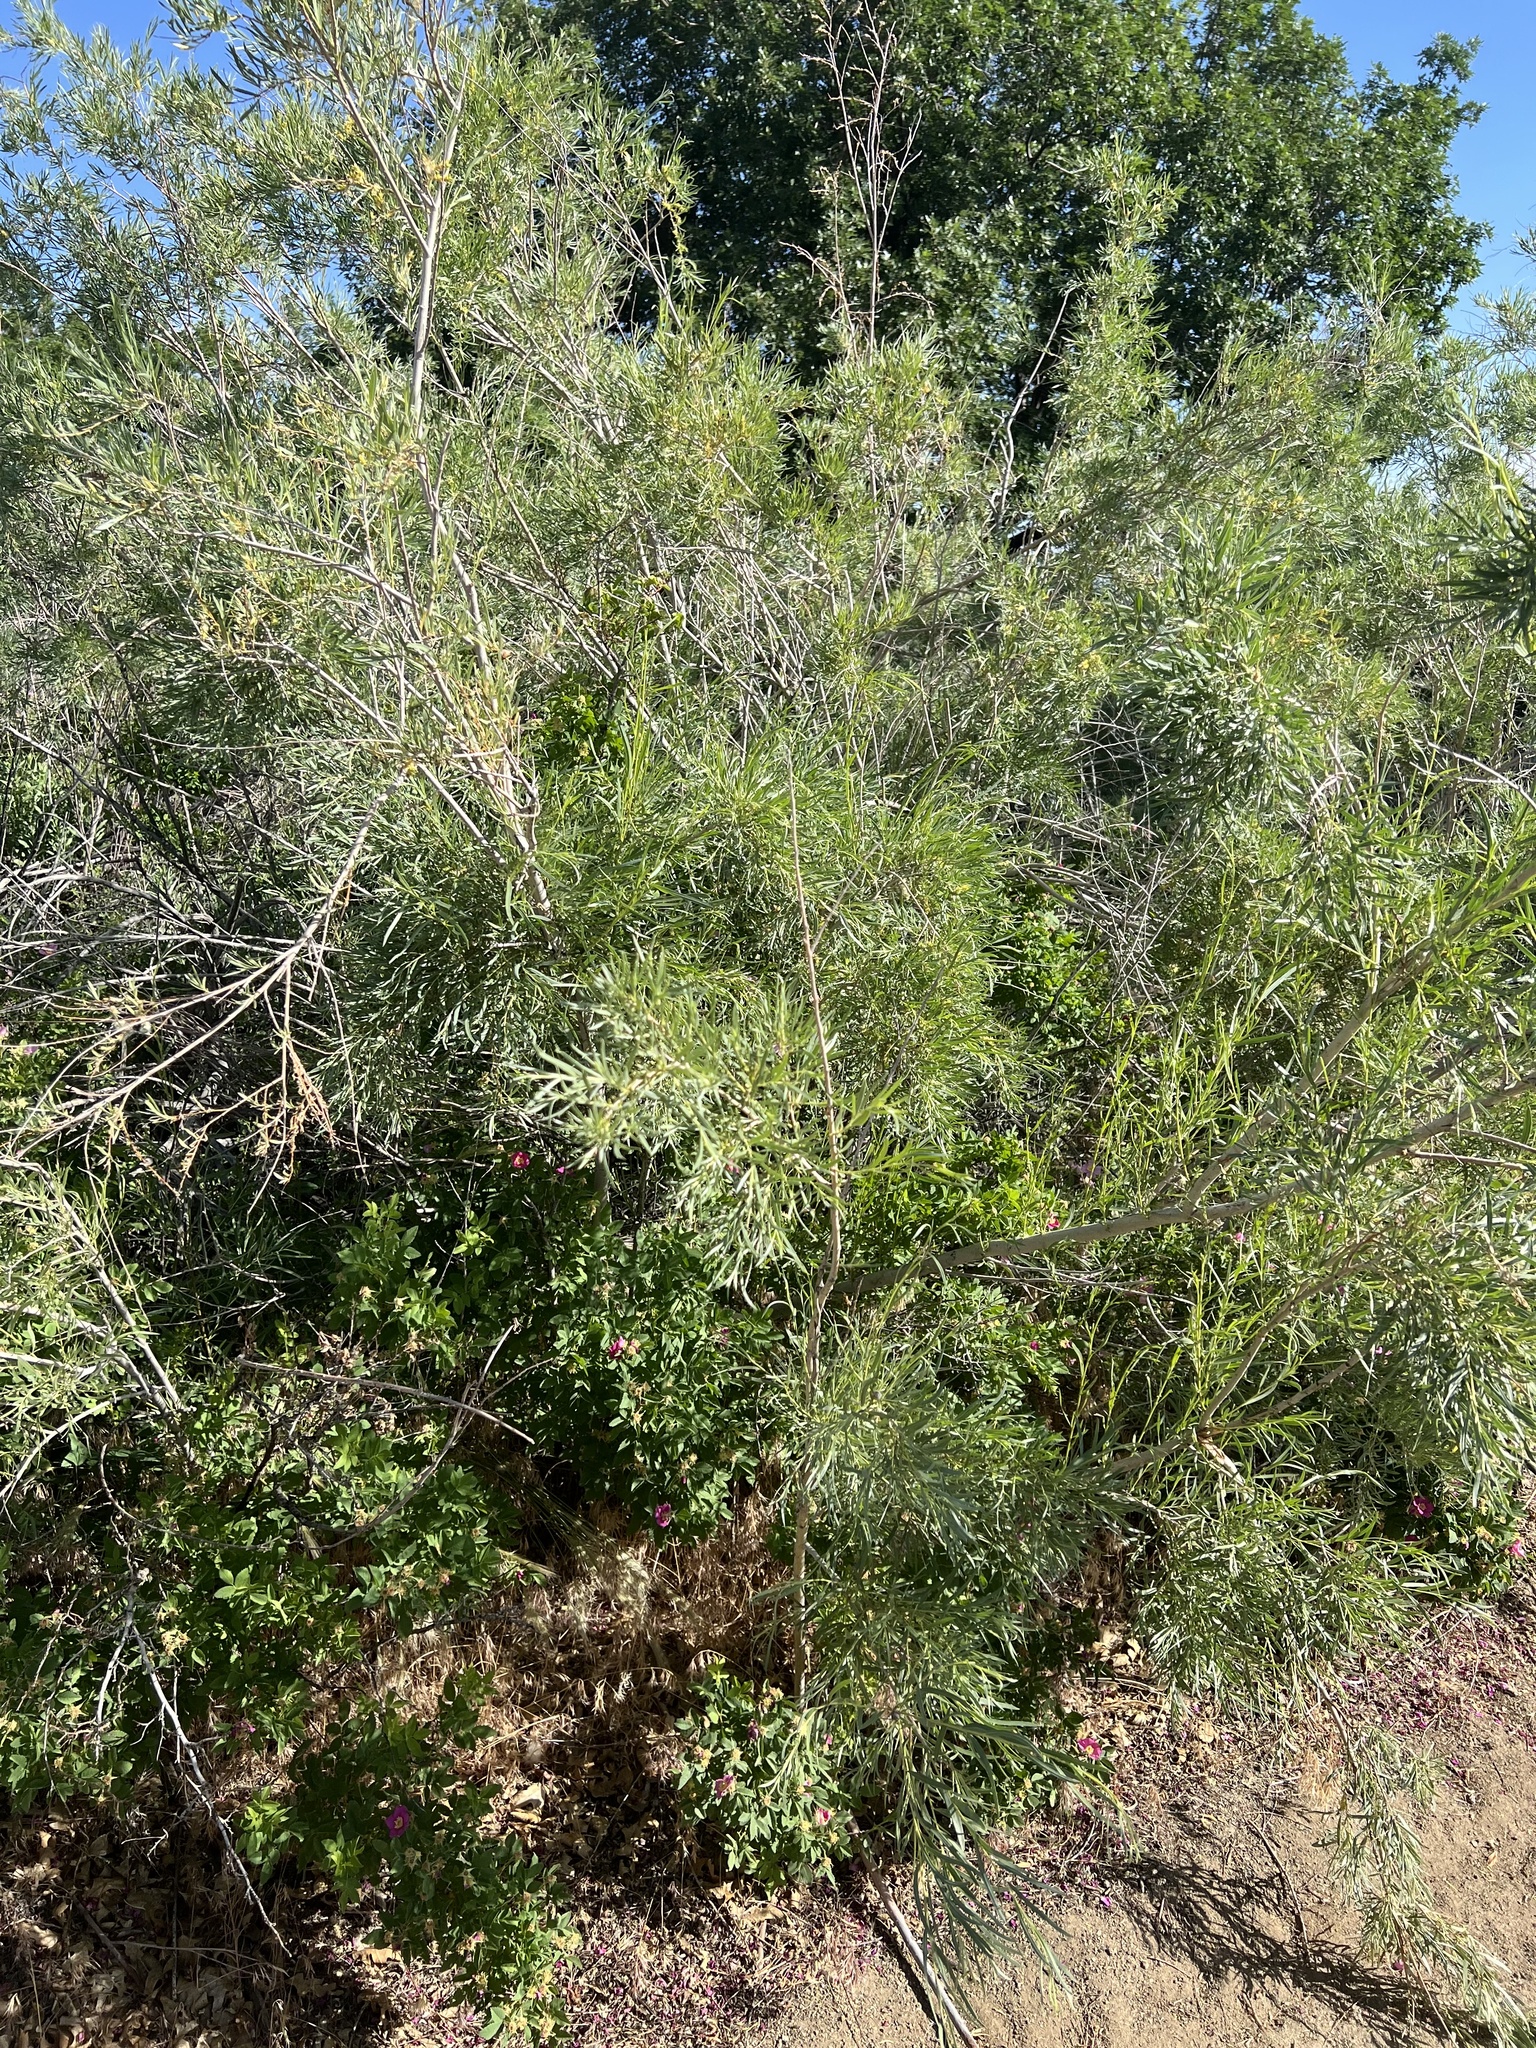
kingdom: Plantae
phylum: Tracheophyta
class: Magnoliopsida
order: Malpighiales
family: Salicaceae
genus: Salix
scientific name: Salix exigua
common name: Coyote willow
